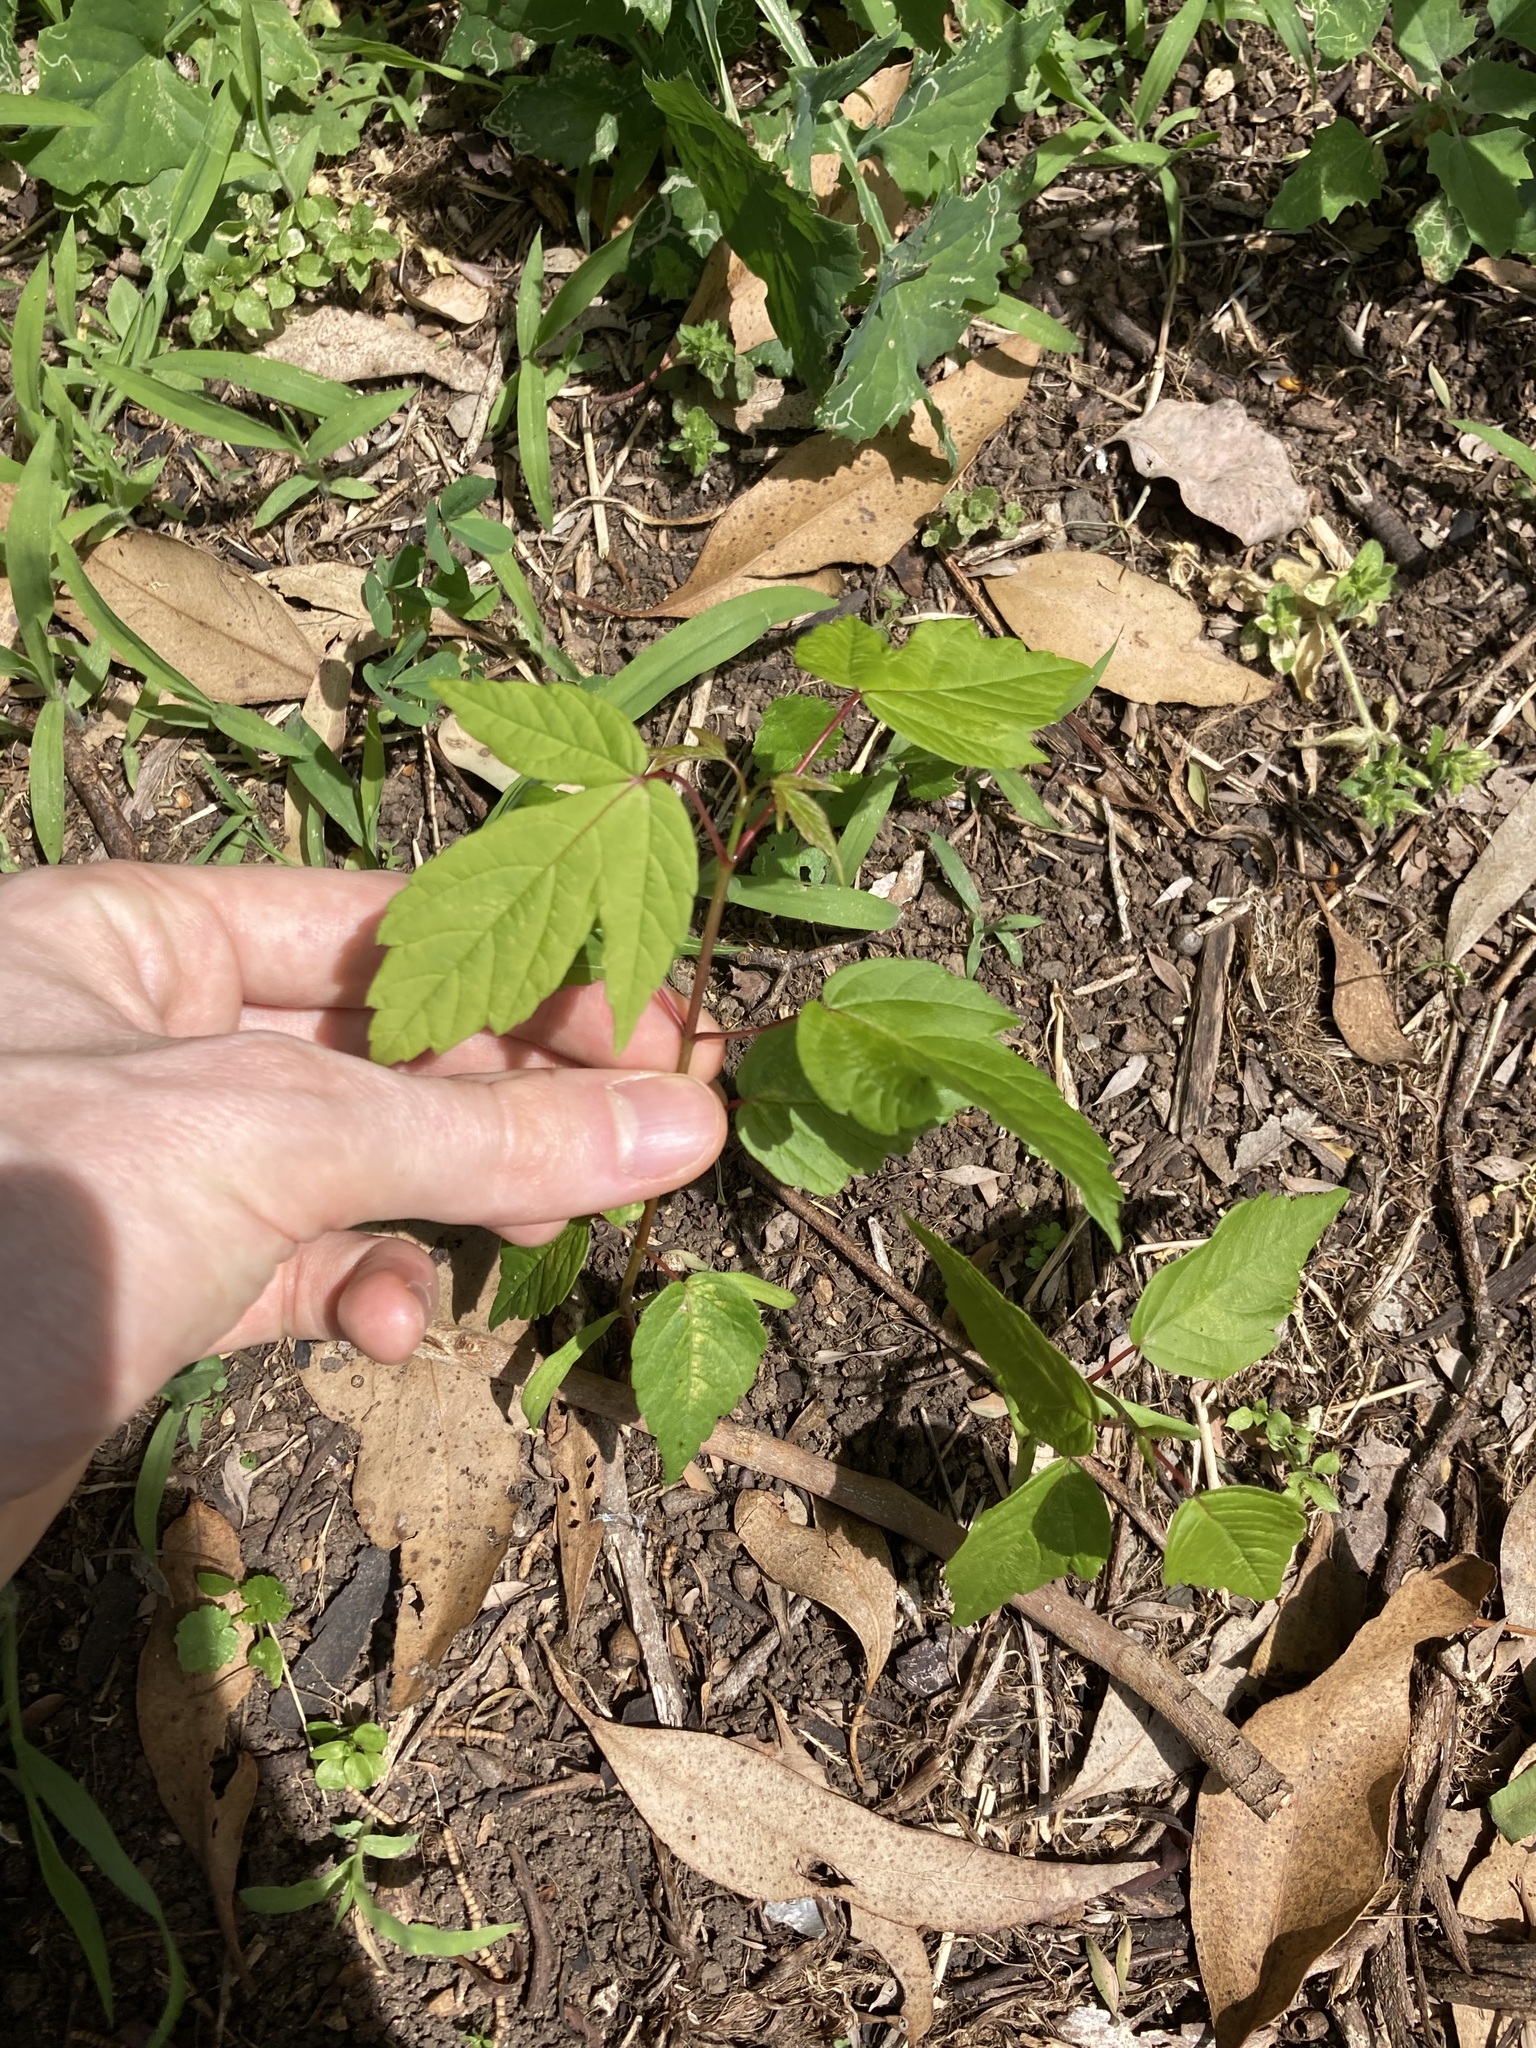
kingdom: Plantae
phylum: Tracheophyta
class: Magnoliopsida
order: Sapindales
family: Sapindaceae
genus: Acer
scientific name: Acer negundo
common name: Ashleaf maple
